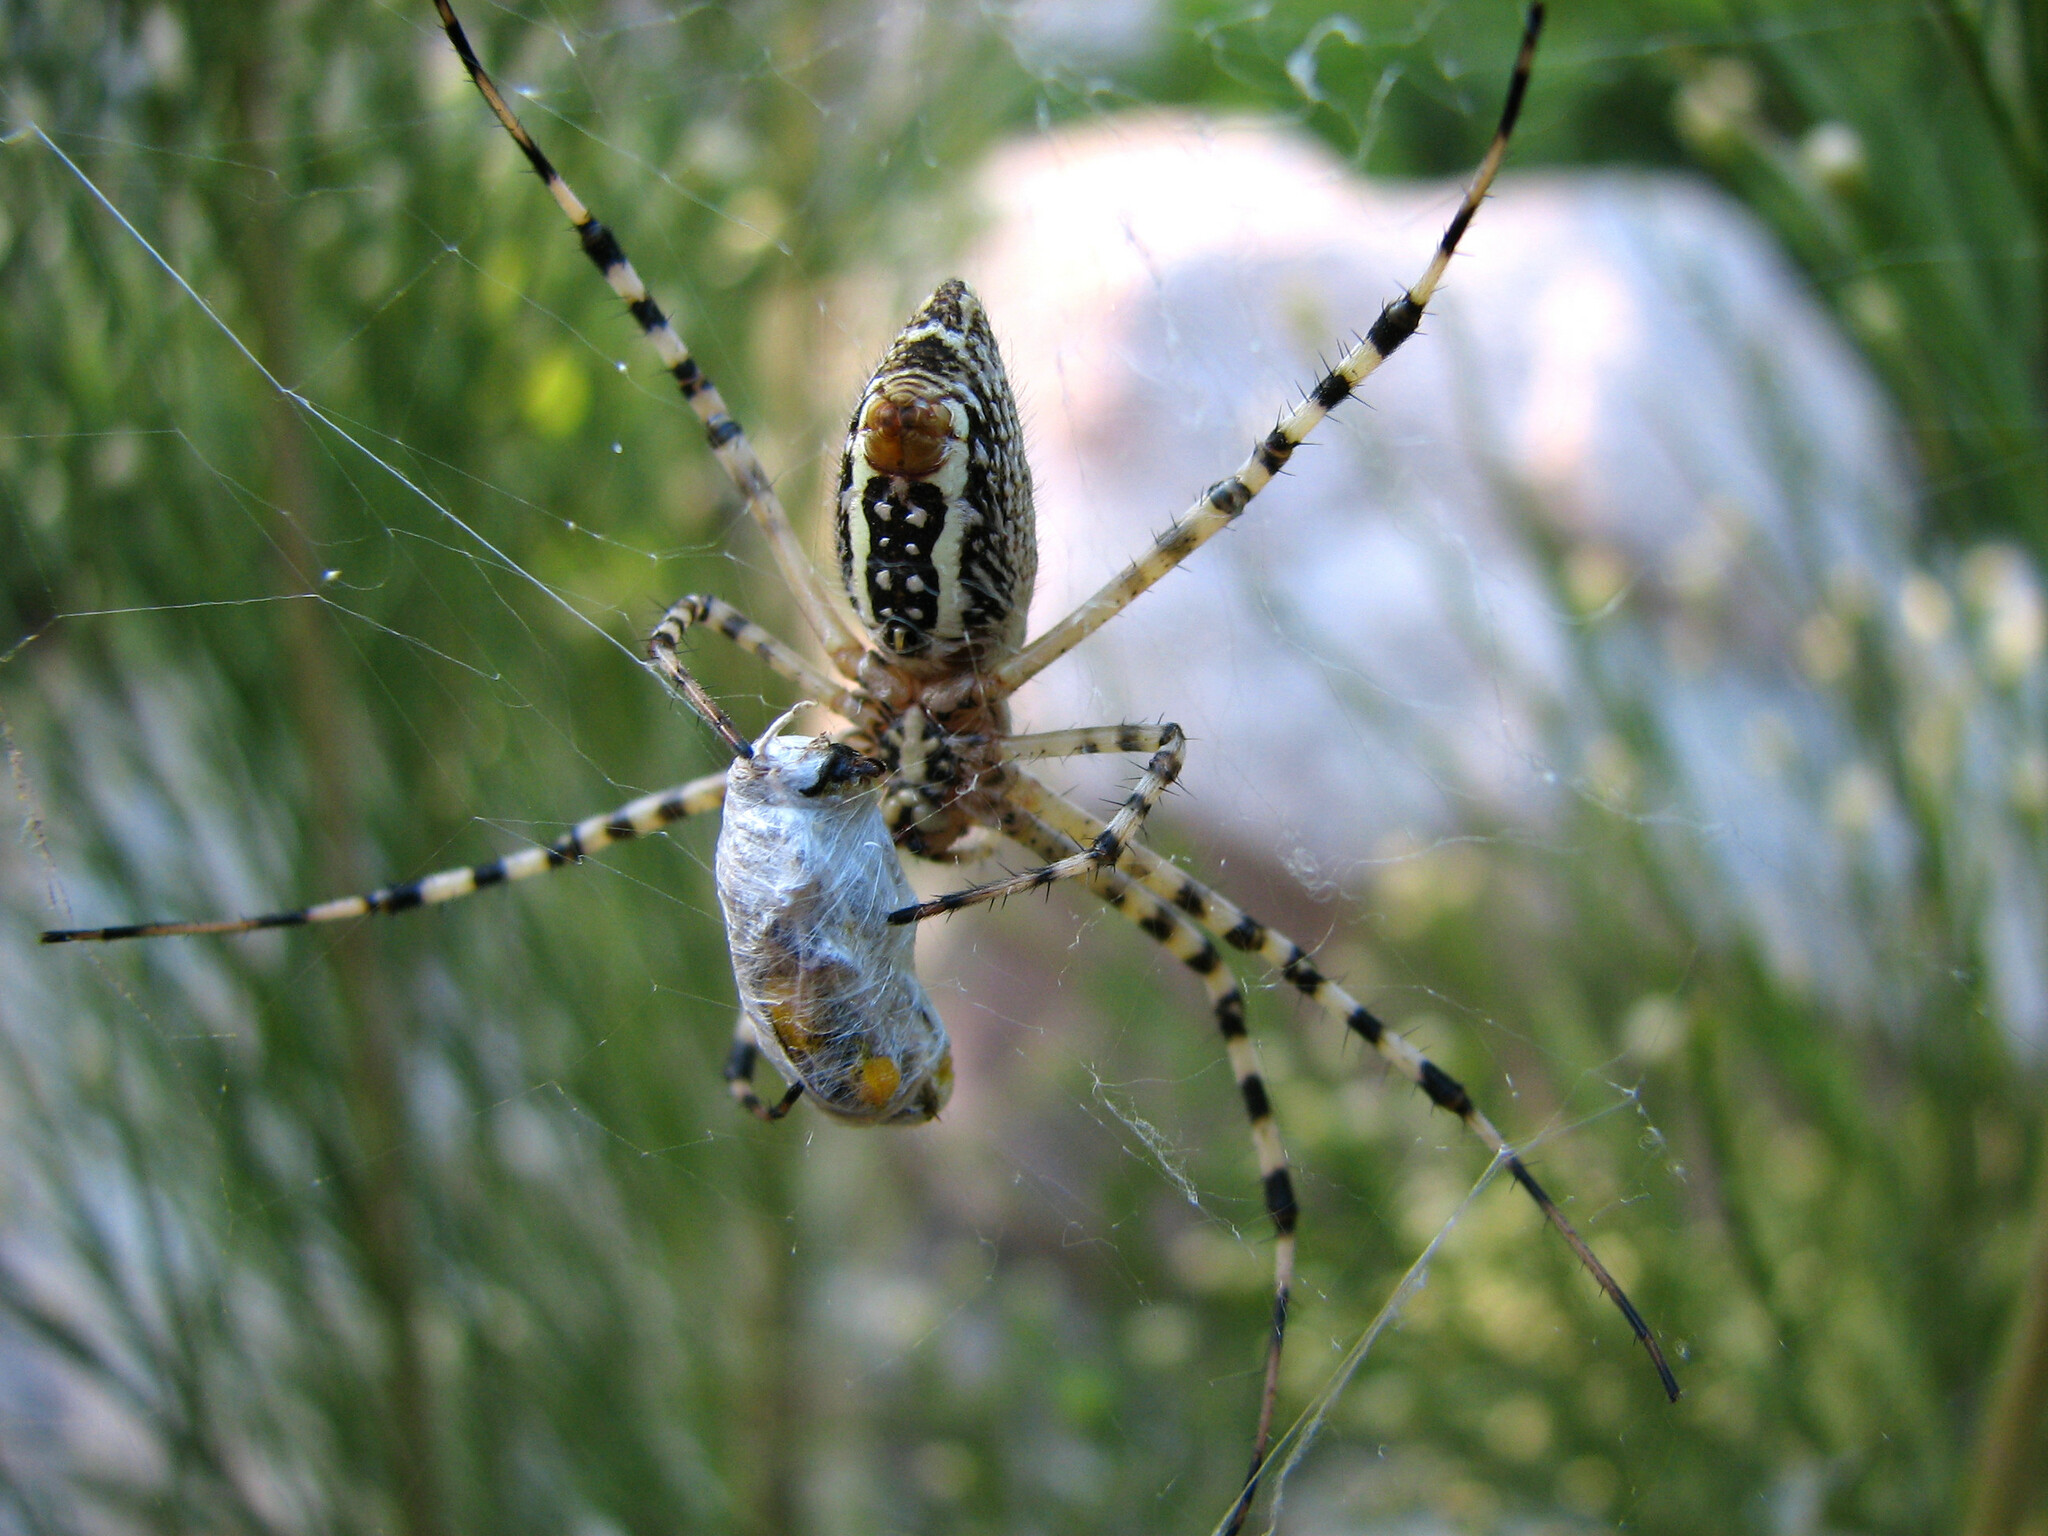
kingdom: Animalia
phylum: Arthropoda
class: Arachnida
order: Araneae
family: Araneidae
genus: Argiope
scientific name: Argiope trifasciata
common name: Banded garden spider
